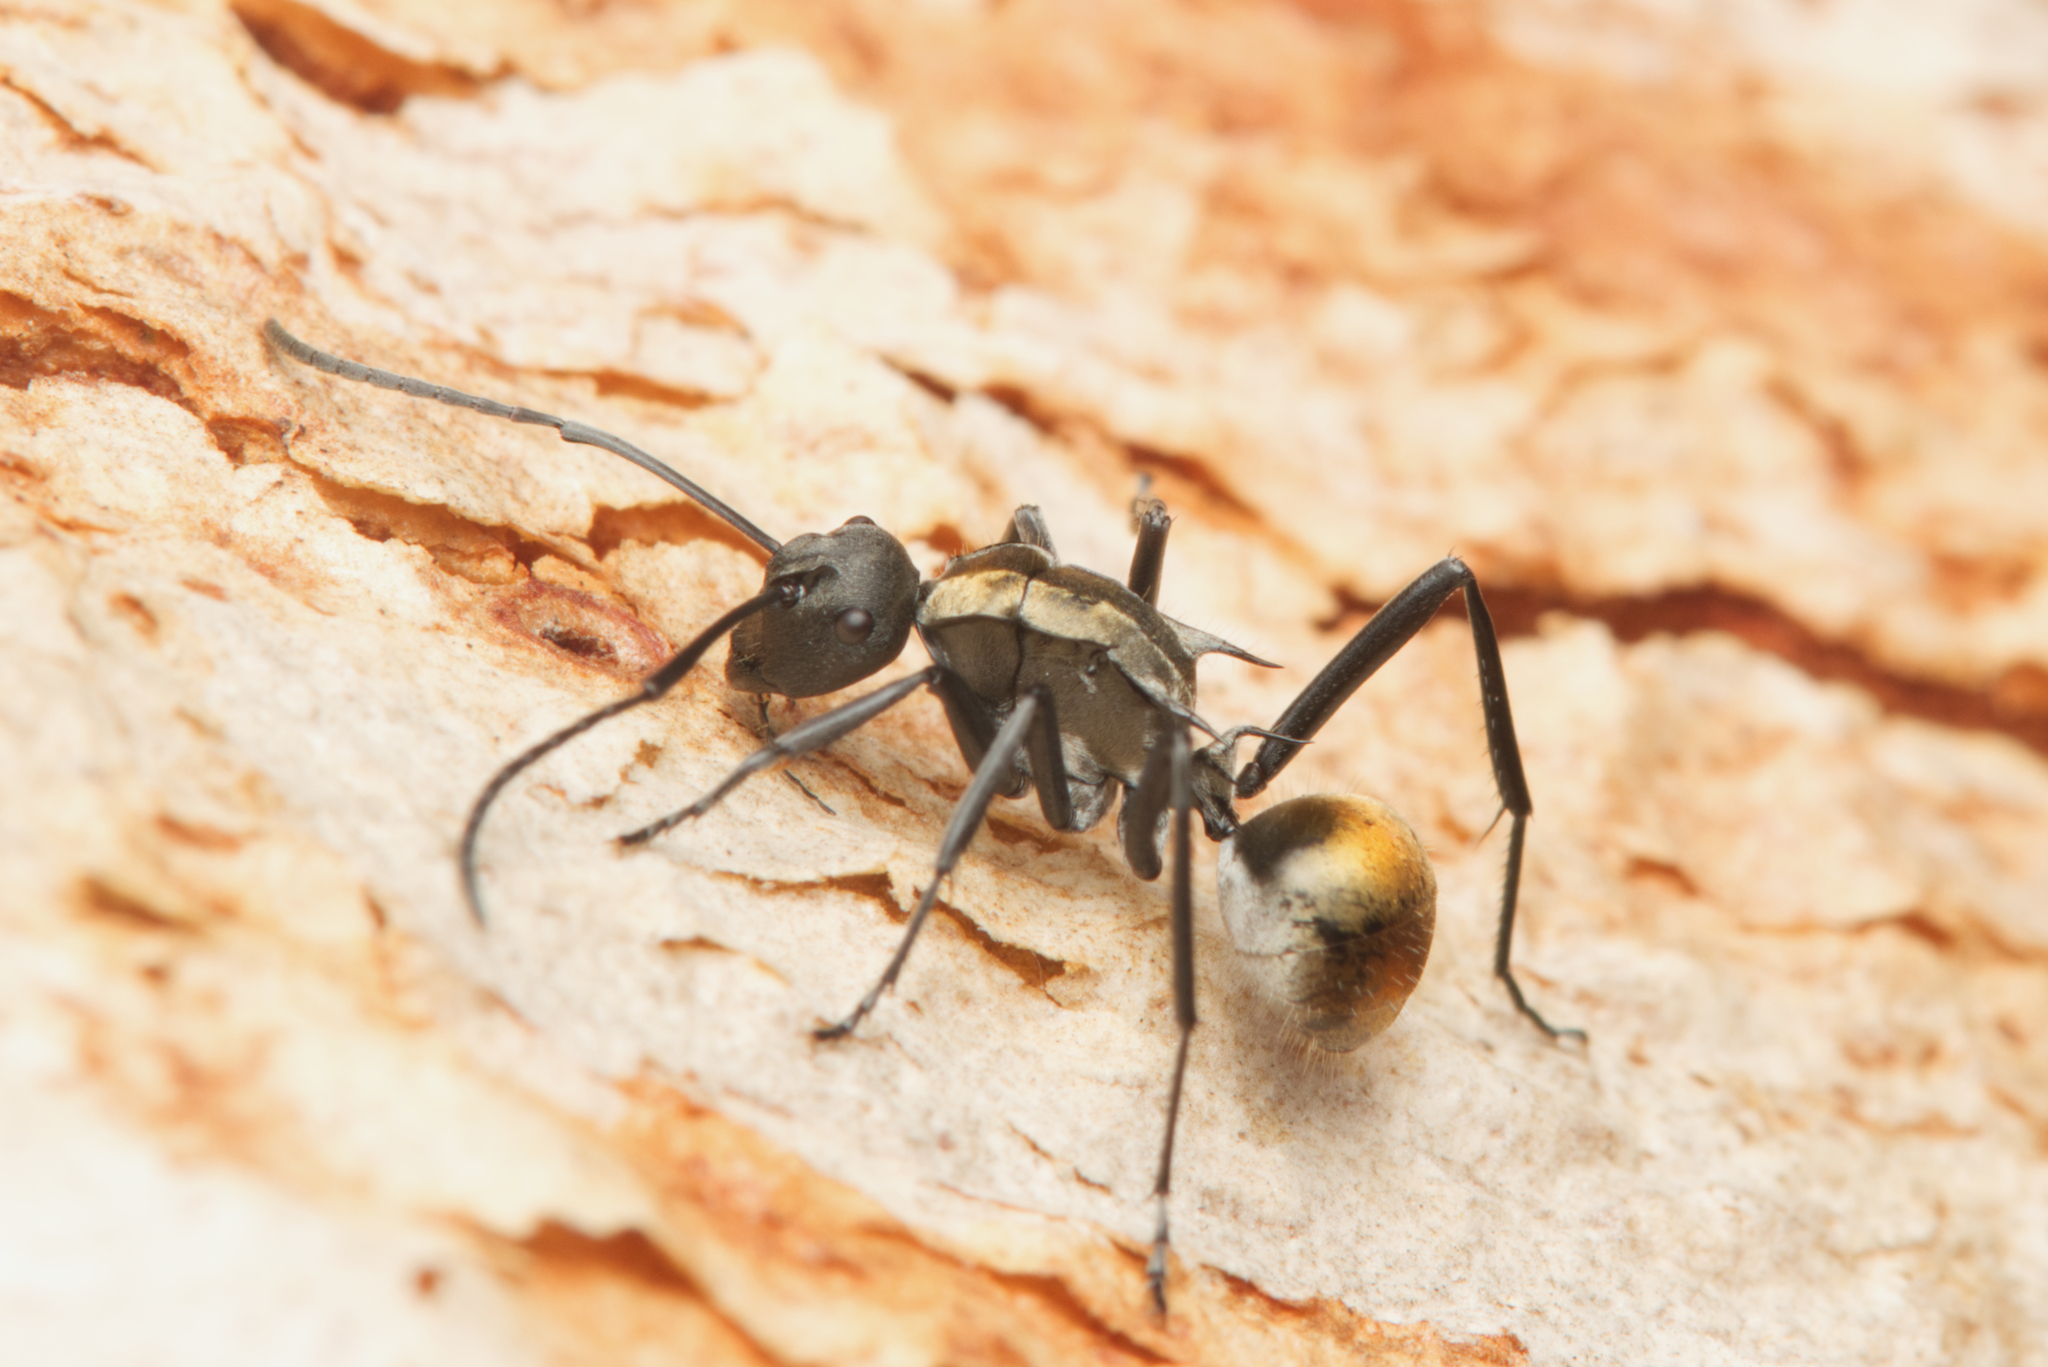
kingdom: Animalia
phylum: Arthropoda
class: Insecta
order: Hymenoptera
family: Formicidae
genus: Polyrhachis
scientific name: Polyrhachis ammon
